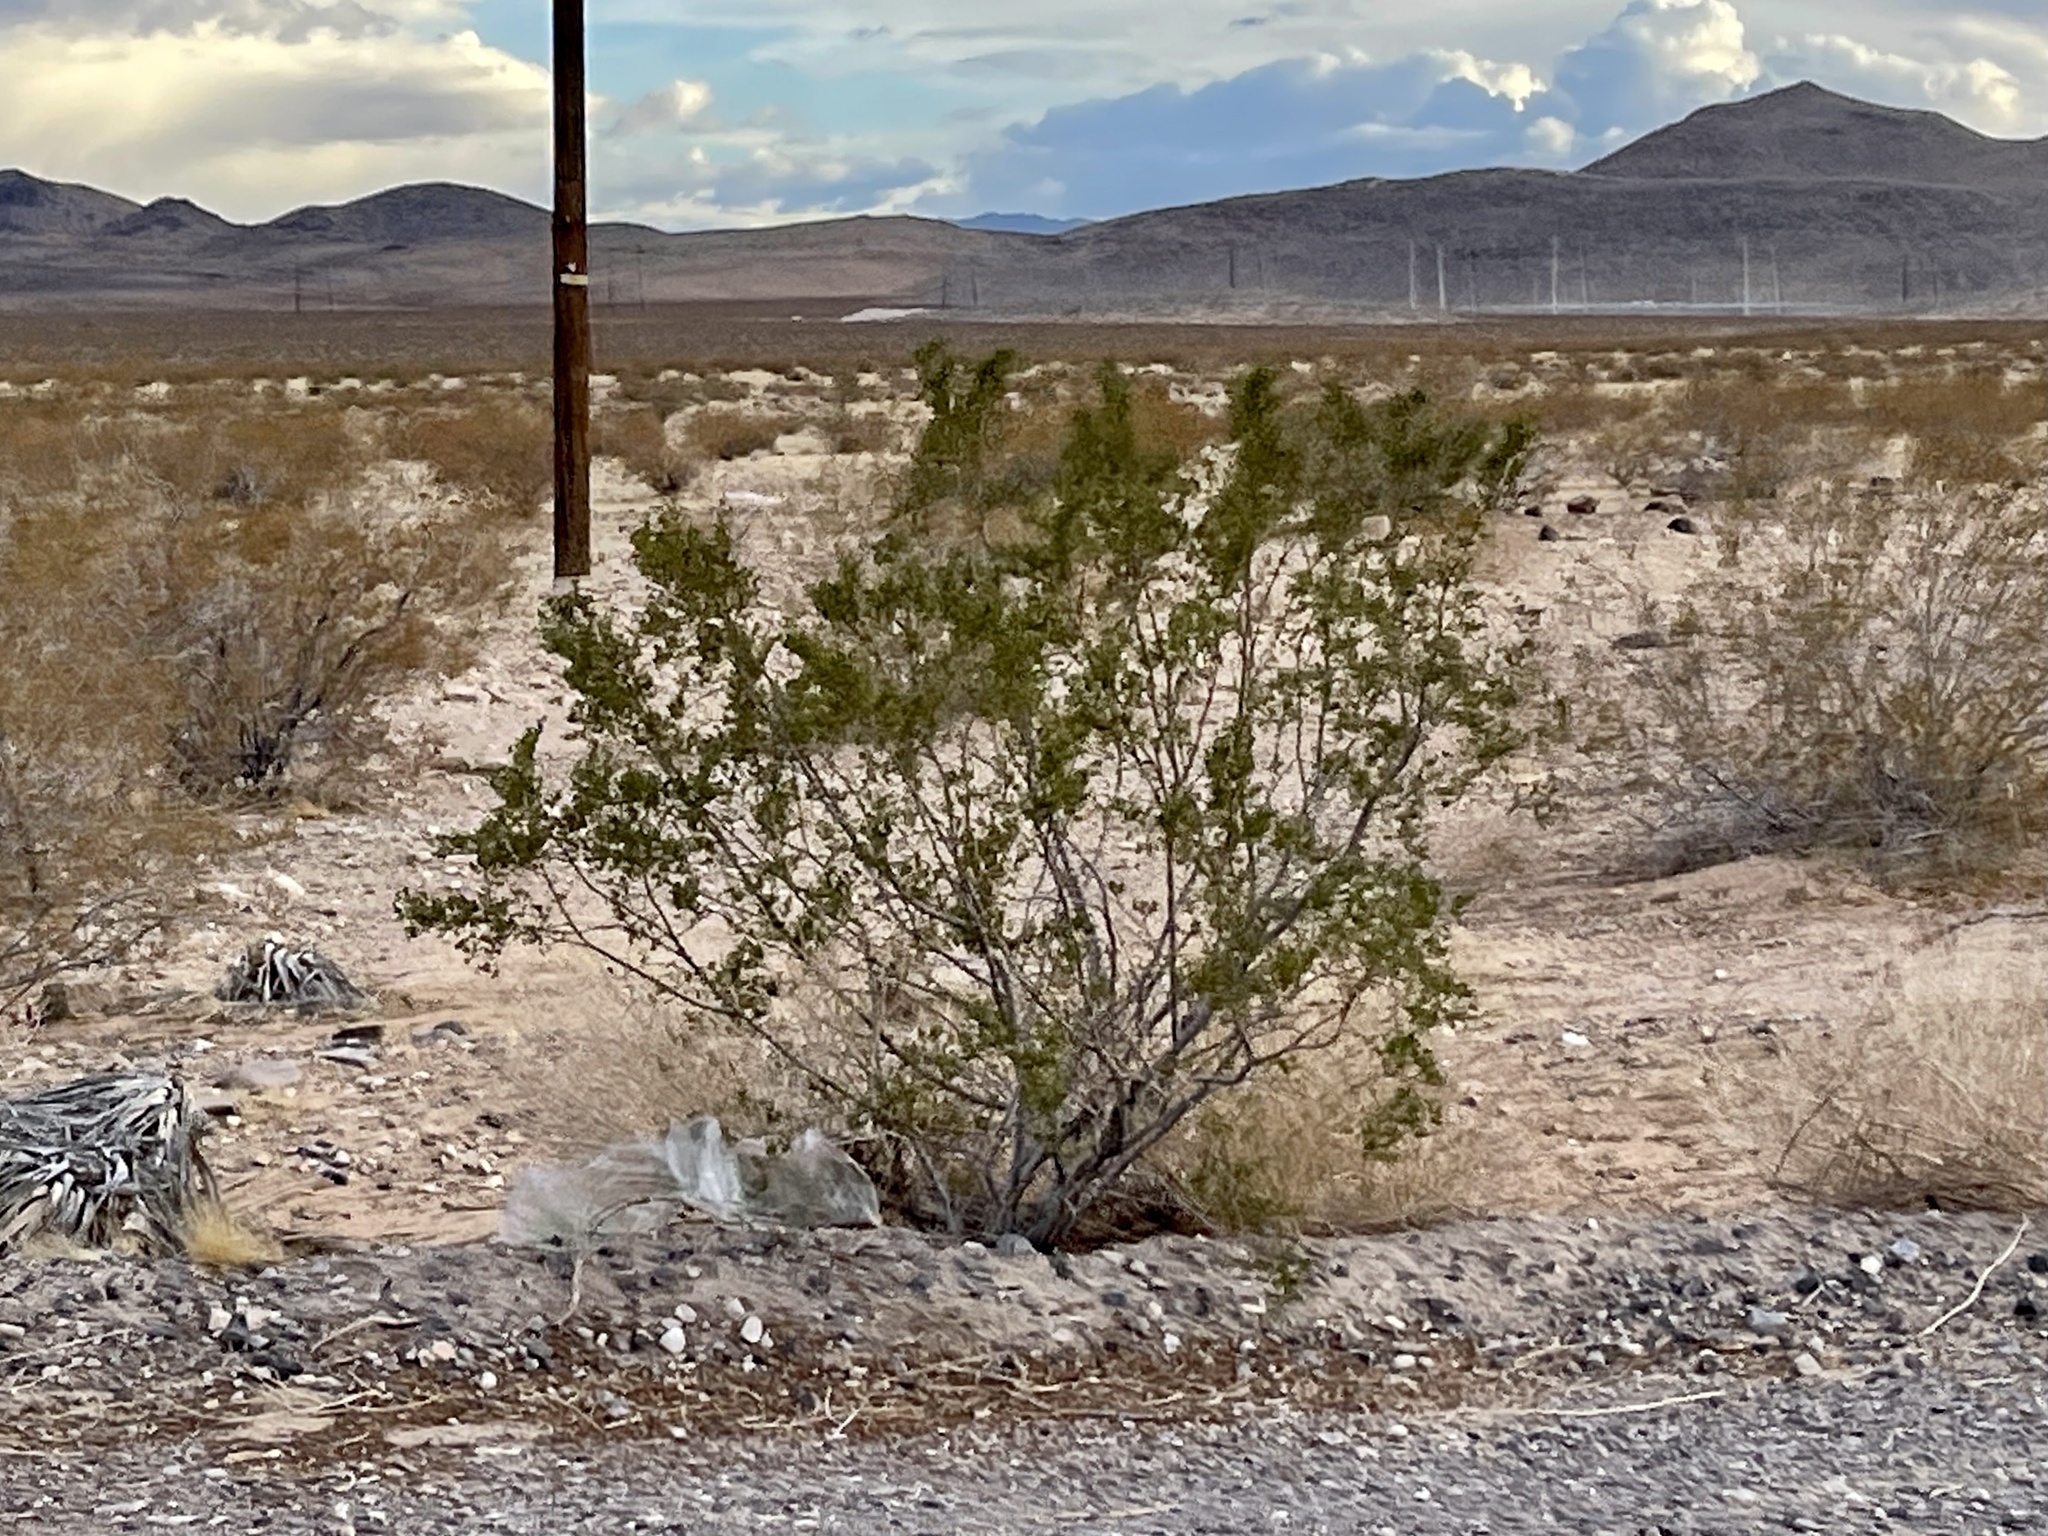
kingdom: Plantae
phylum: Tracheophyta
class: Magnoliopsida
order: Zygophyllales
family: Zygophyllaceae
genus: Larrea
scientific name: Larrea tridentata
